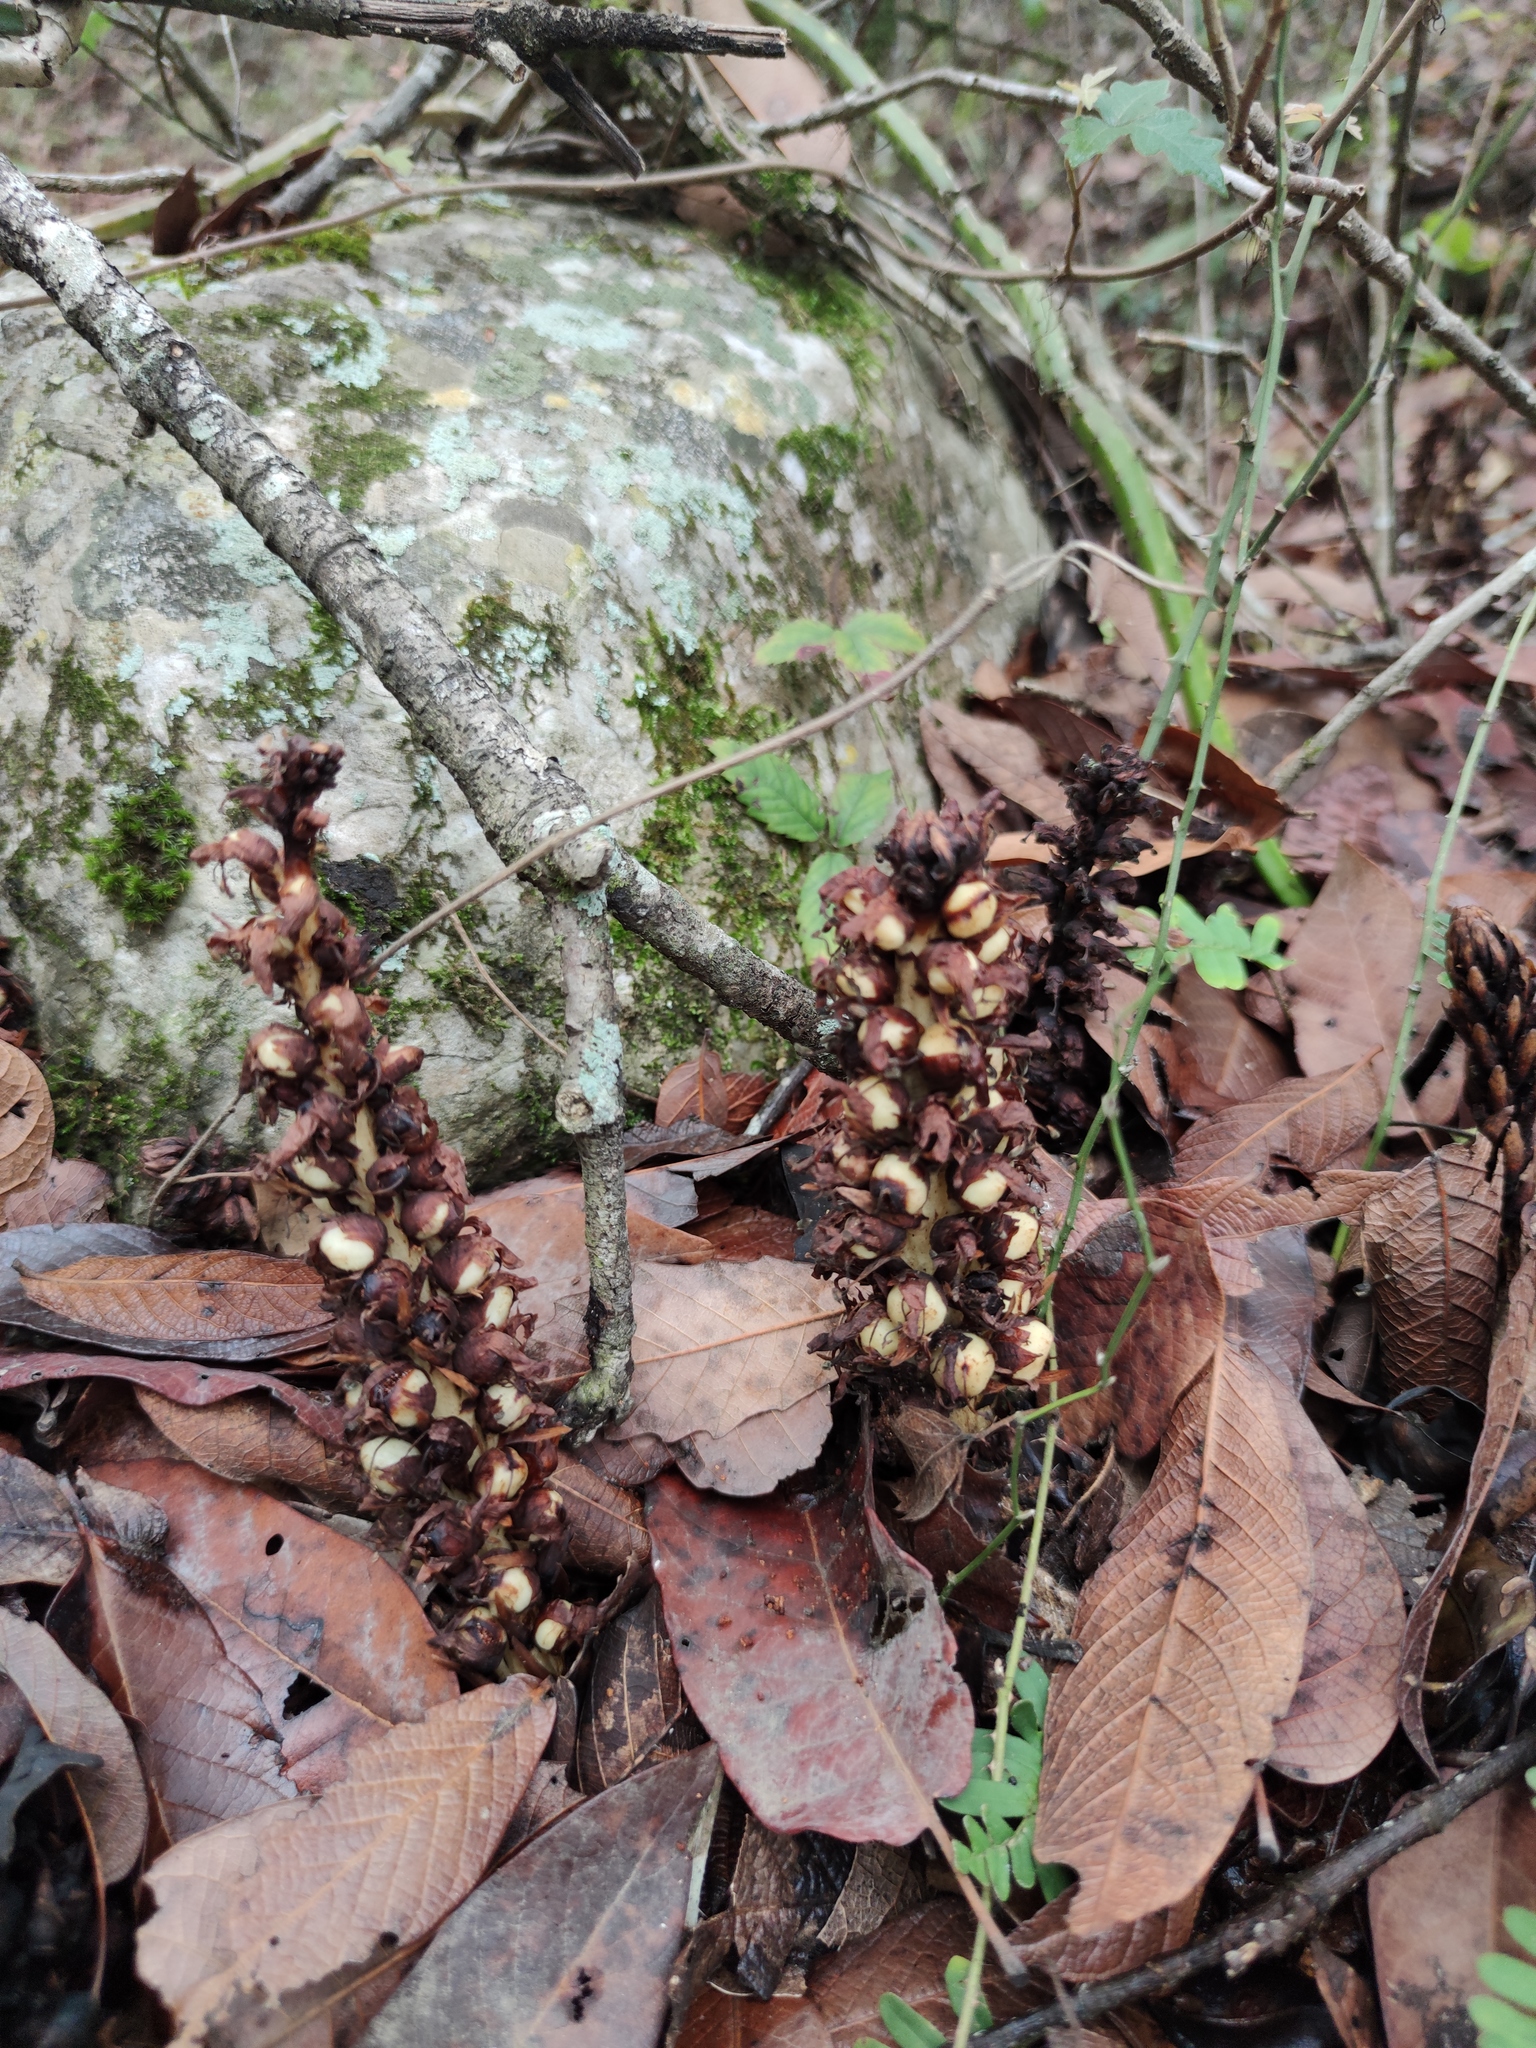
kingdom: Plantae
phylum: Tracheophyta
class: Magnoliopsida
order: Lamiales
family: Orobanchaceae
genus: Conopholis
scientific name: Conopholis alpina
